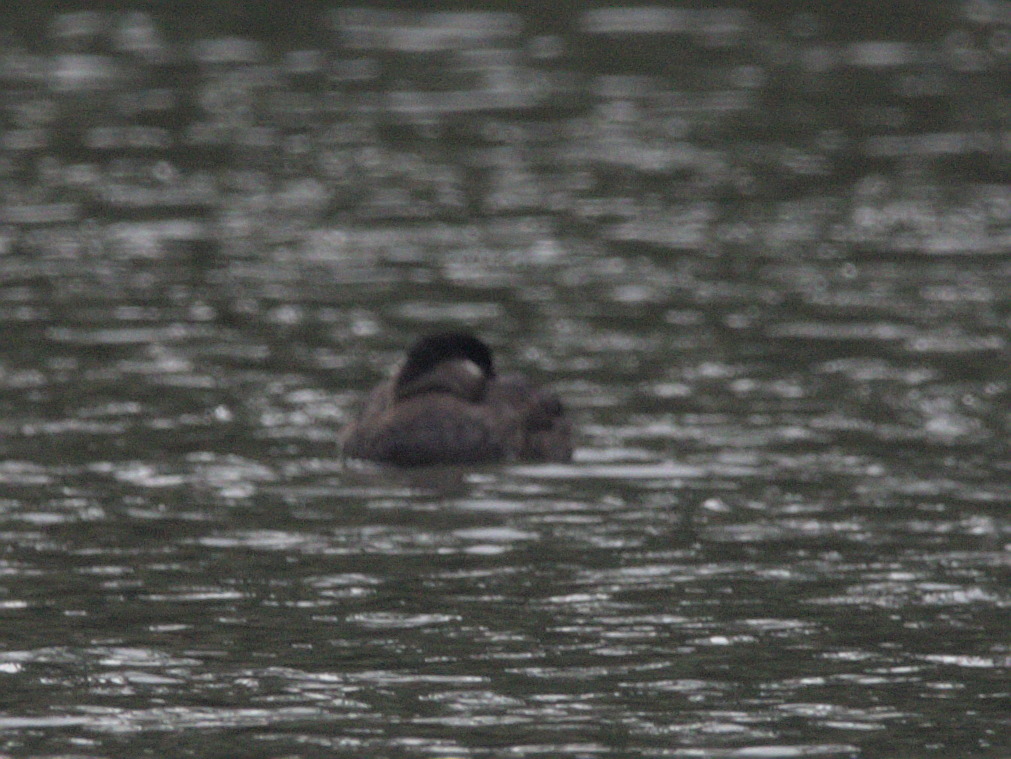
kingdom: Animalia
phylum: Chordata
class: Aves
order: Anseriformes
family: Anatidae
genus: Melanitta
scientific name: Melanitta perspicillata
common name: Surf scoter
